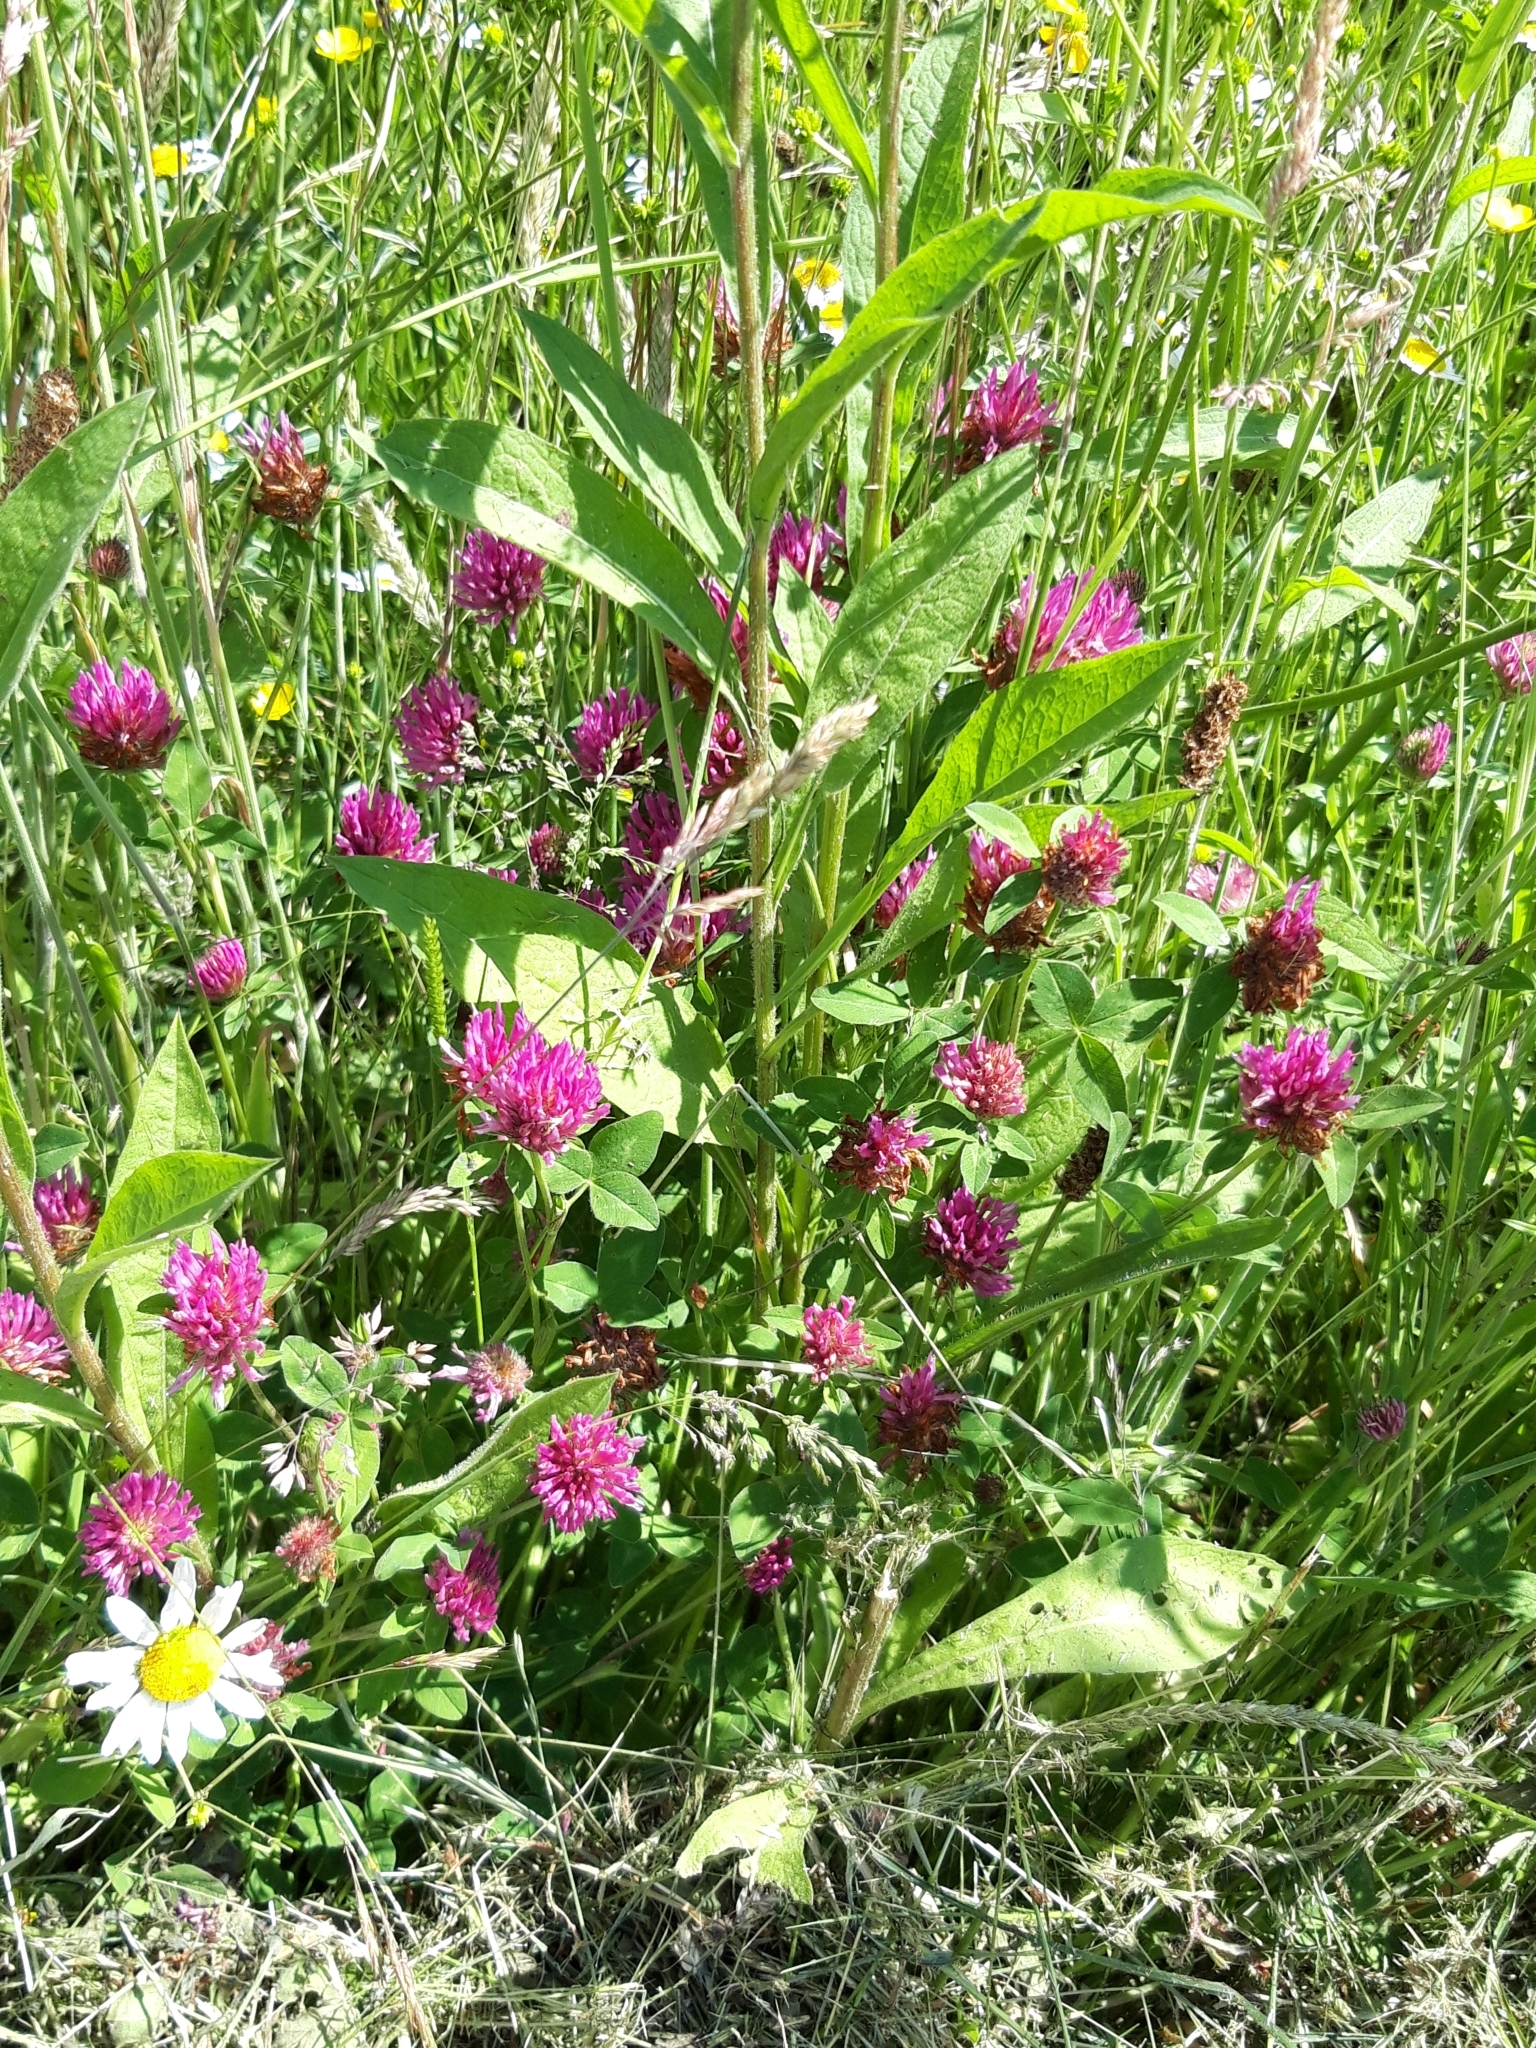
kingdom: Plantae
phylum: Tracheophyta
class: Magnoliopsida
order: Fabales
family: Fabaceae
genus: Trifolium
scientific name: Trifolium pratense
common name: Red clover
